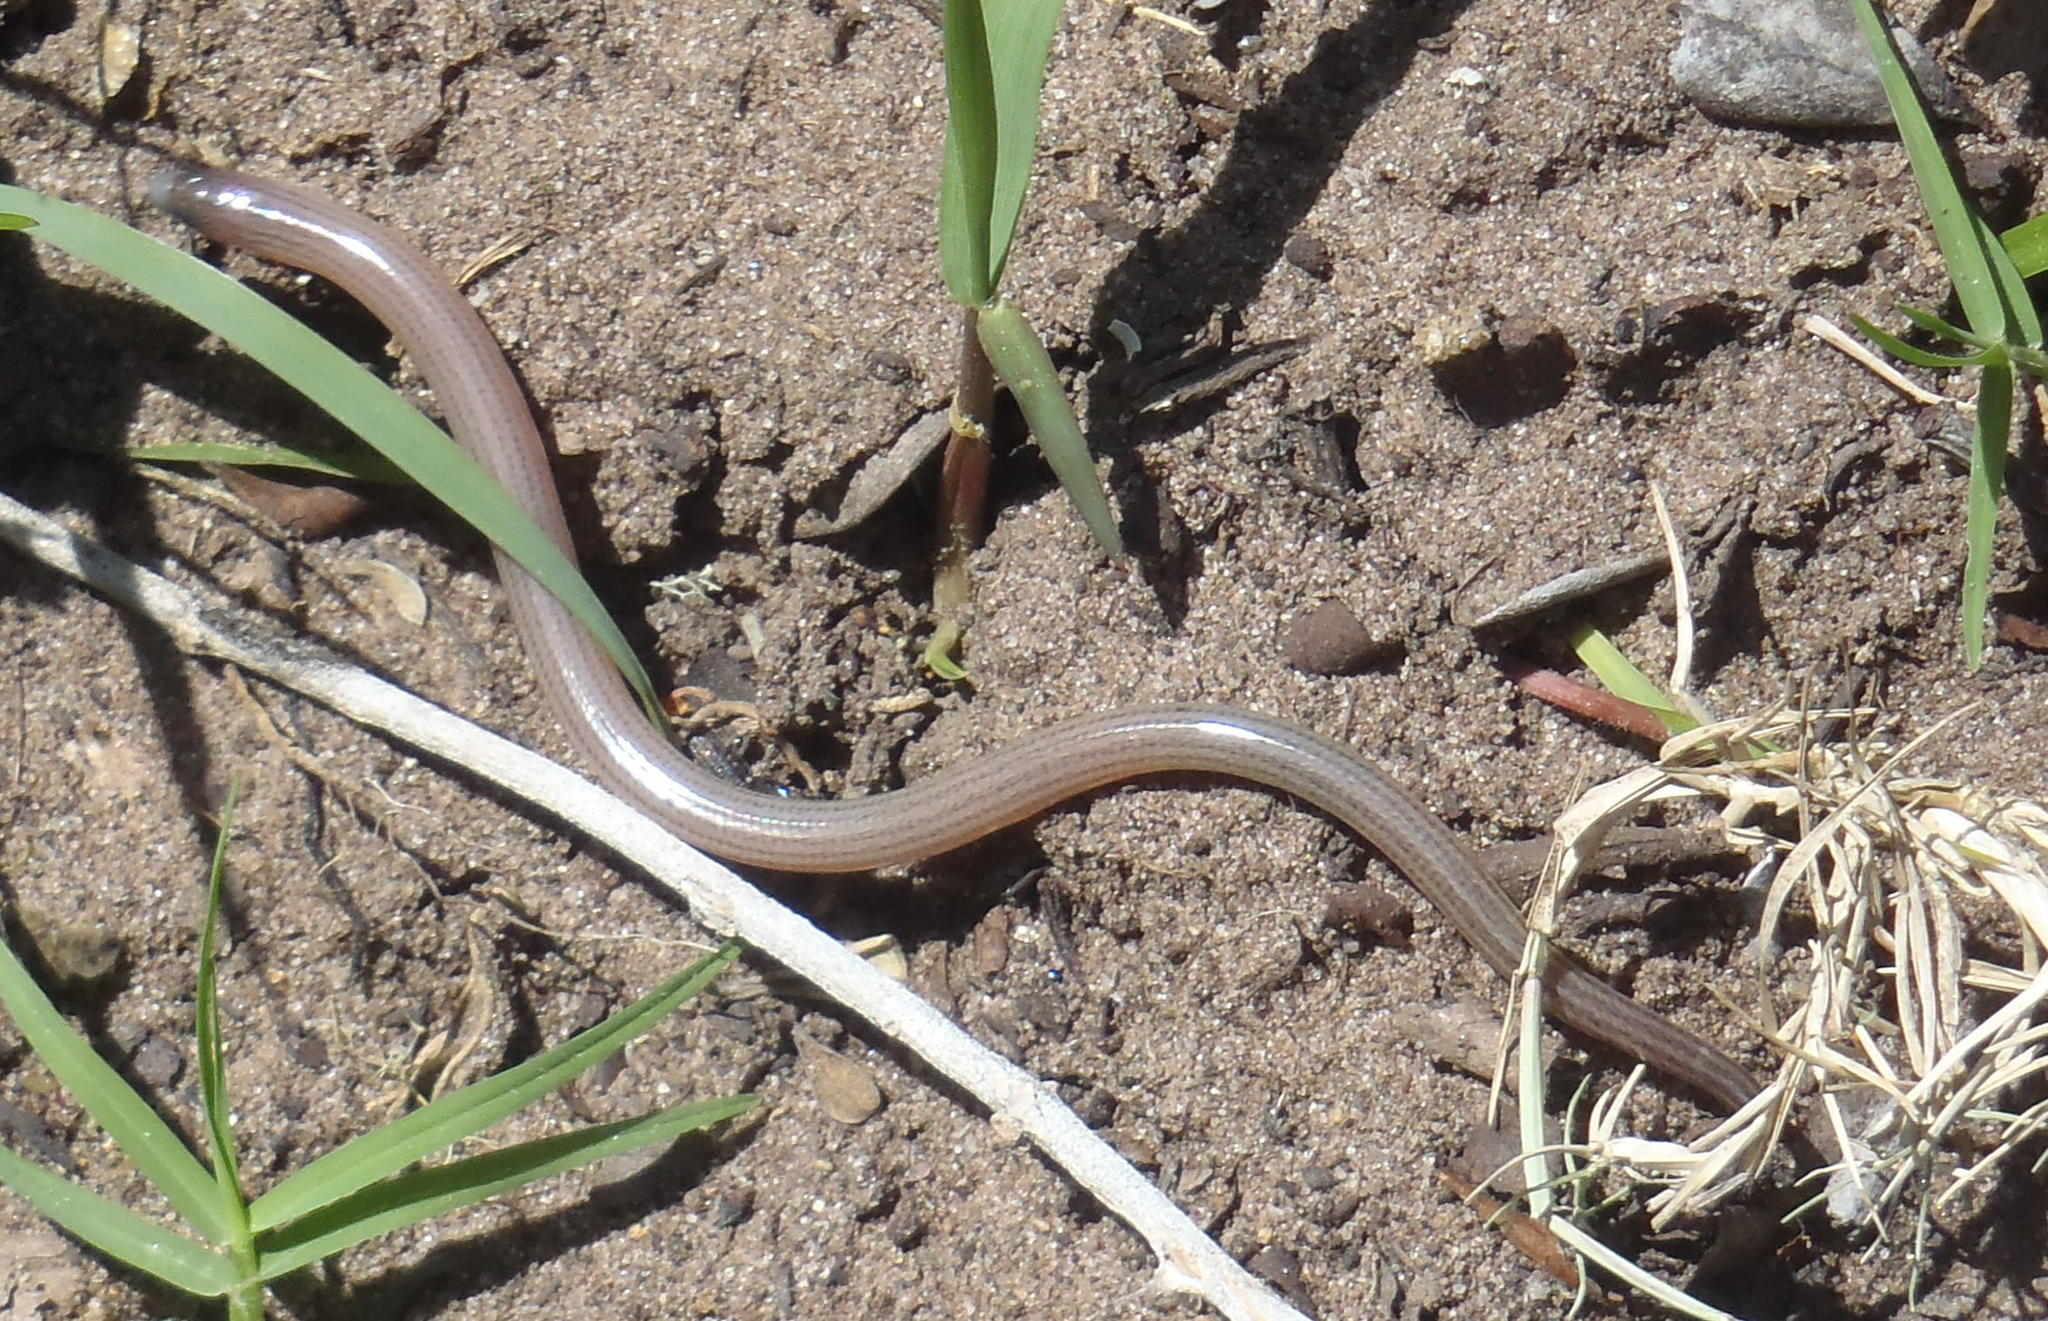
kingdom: Animalia
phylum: Chordata
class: Squamata
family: Scincidae
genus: Acontias
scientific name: Acontias meleagris
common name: Cape legless skink
